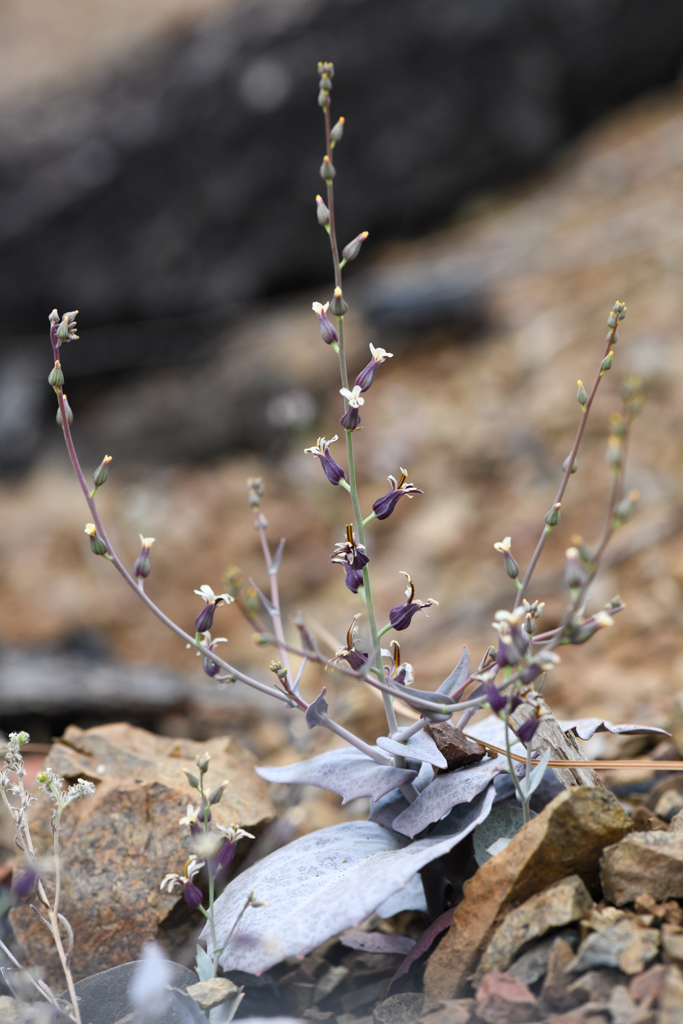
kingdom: Plantae
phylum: Tracheophyta
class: Magnoliopsida
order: Brassicales
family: Brassicaceae
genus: Streptanthus
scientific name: Streptanthus breweri
